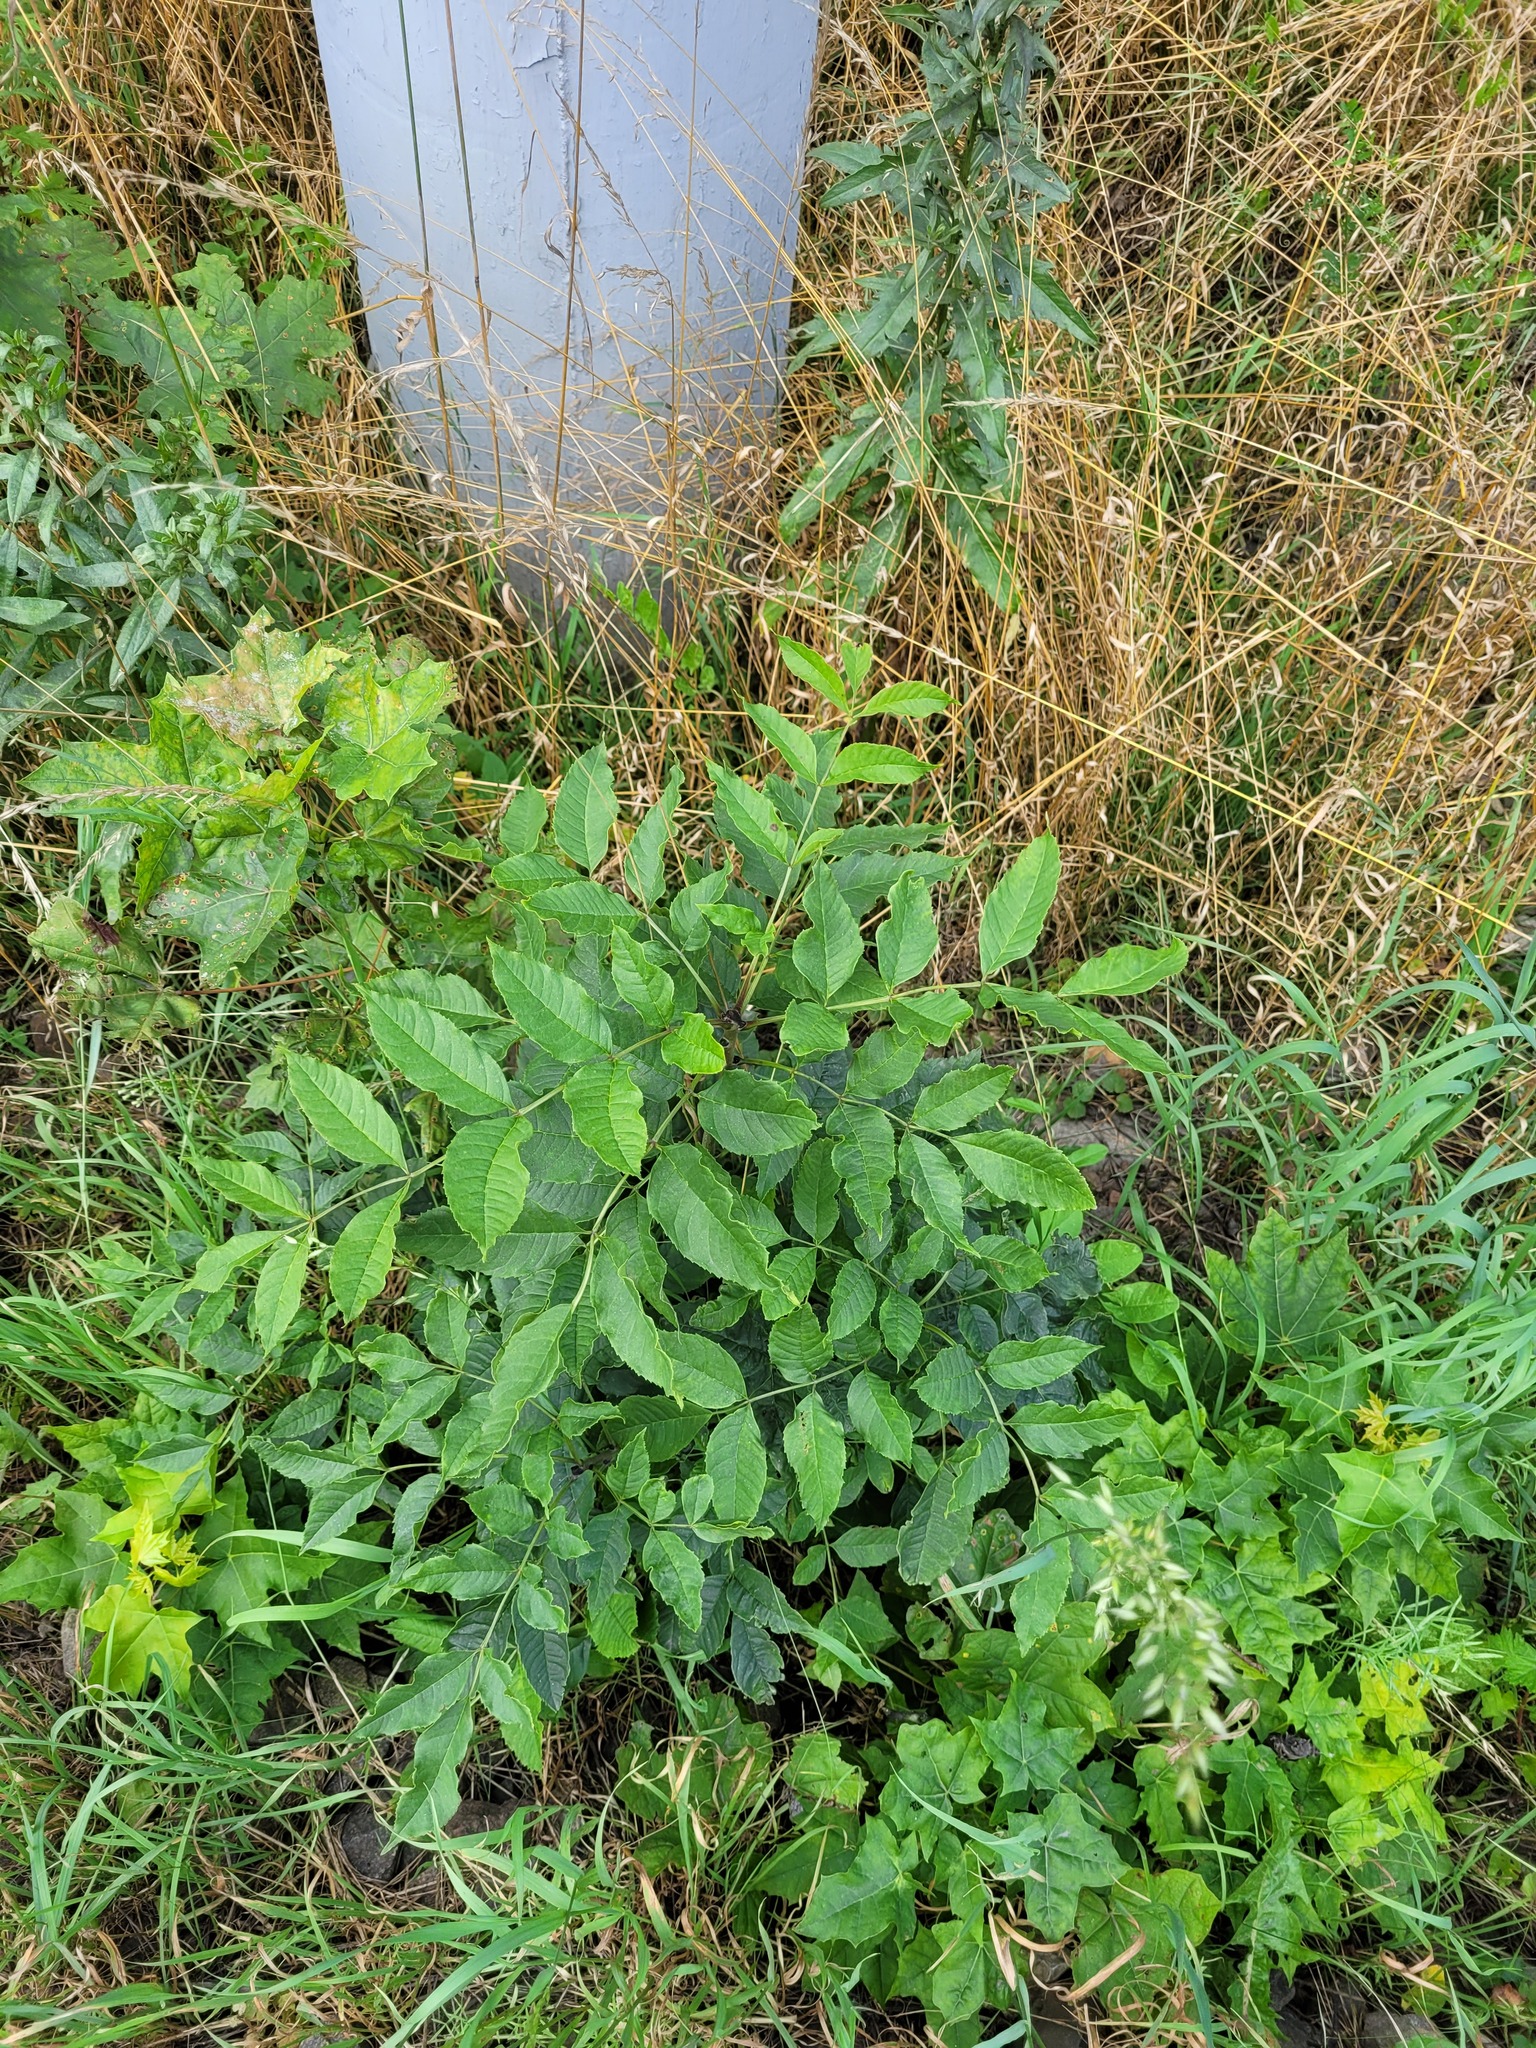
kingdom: Plantae
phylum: Tracheophyta
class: Magnoliopsida
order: Lamiales
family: Oleaceae
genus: Fraxinus
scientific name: Fraxinus excelsior
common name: European ash
